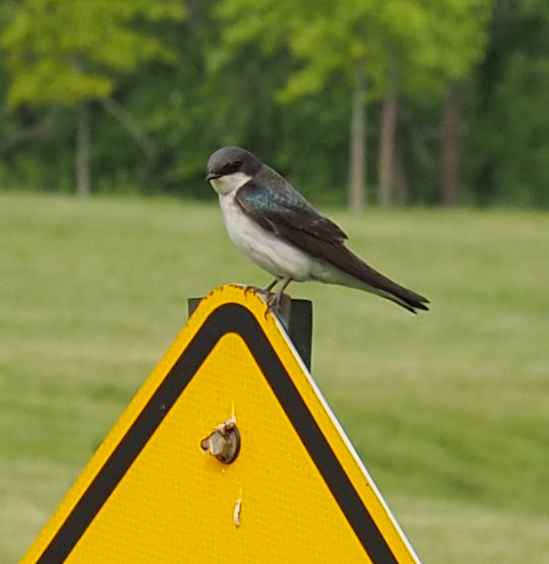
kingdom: Animalia
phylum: Chordata
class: Aves
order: Passeriformes
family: Hirundinidae
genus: Tachycineta
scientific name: Tachycineta bicolor
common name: Tree swallow
